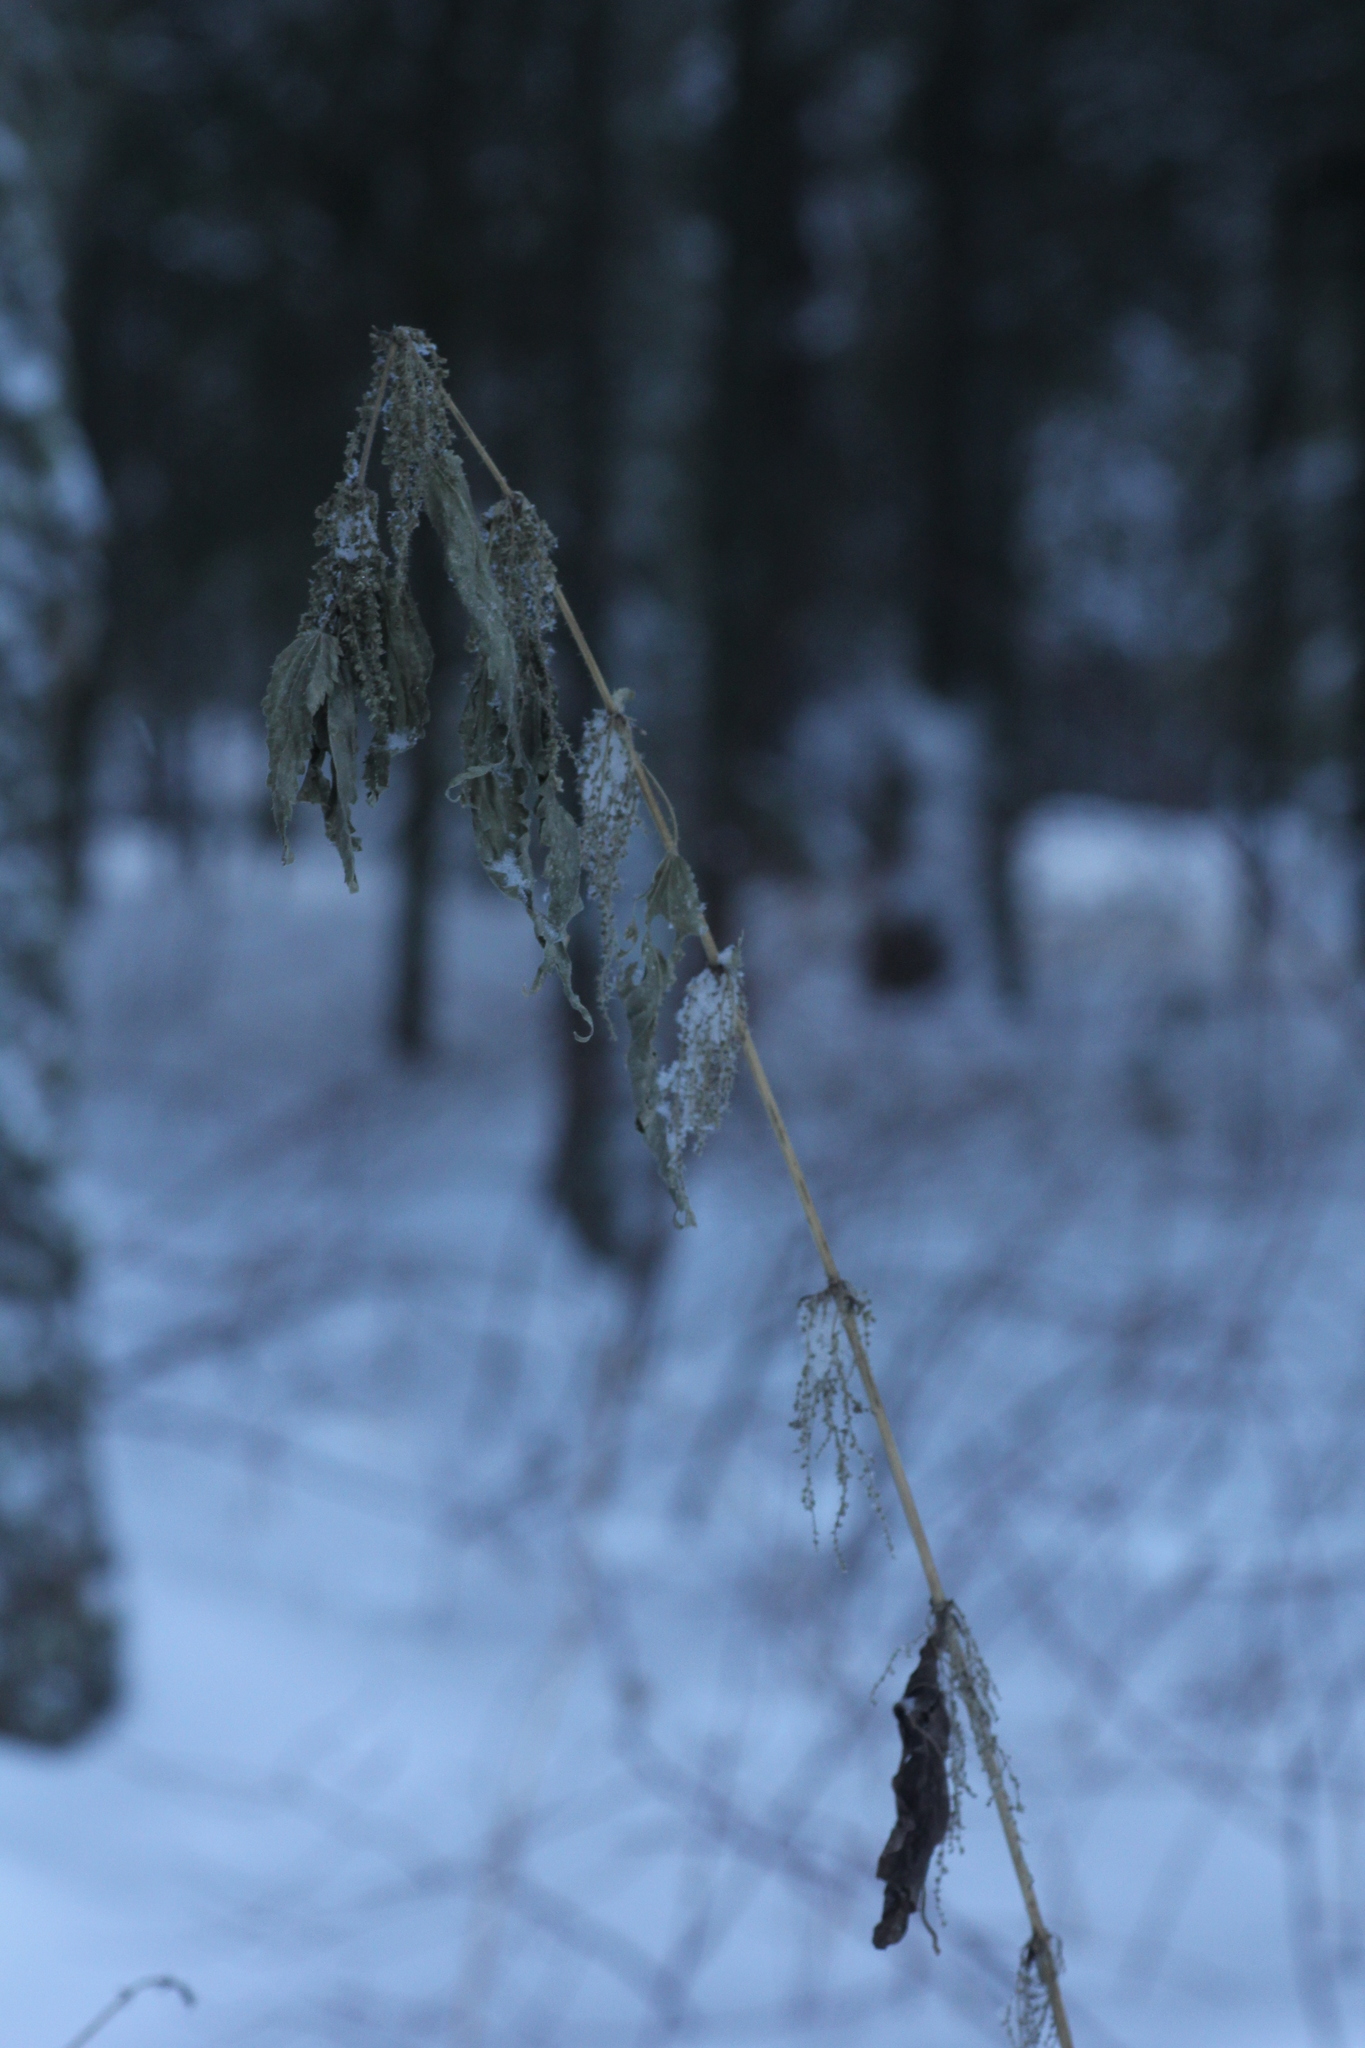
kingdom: Plantae
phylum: Tracheophyta
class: Magnoliopsida
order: Rosales
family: Urticaceae
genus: Urtica
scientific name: Urtica dioica
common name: Common nettle
